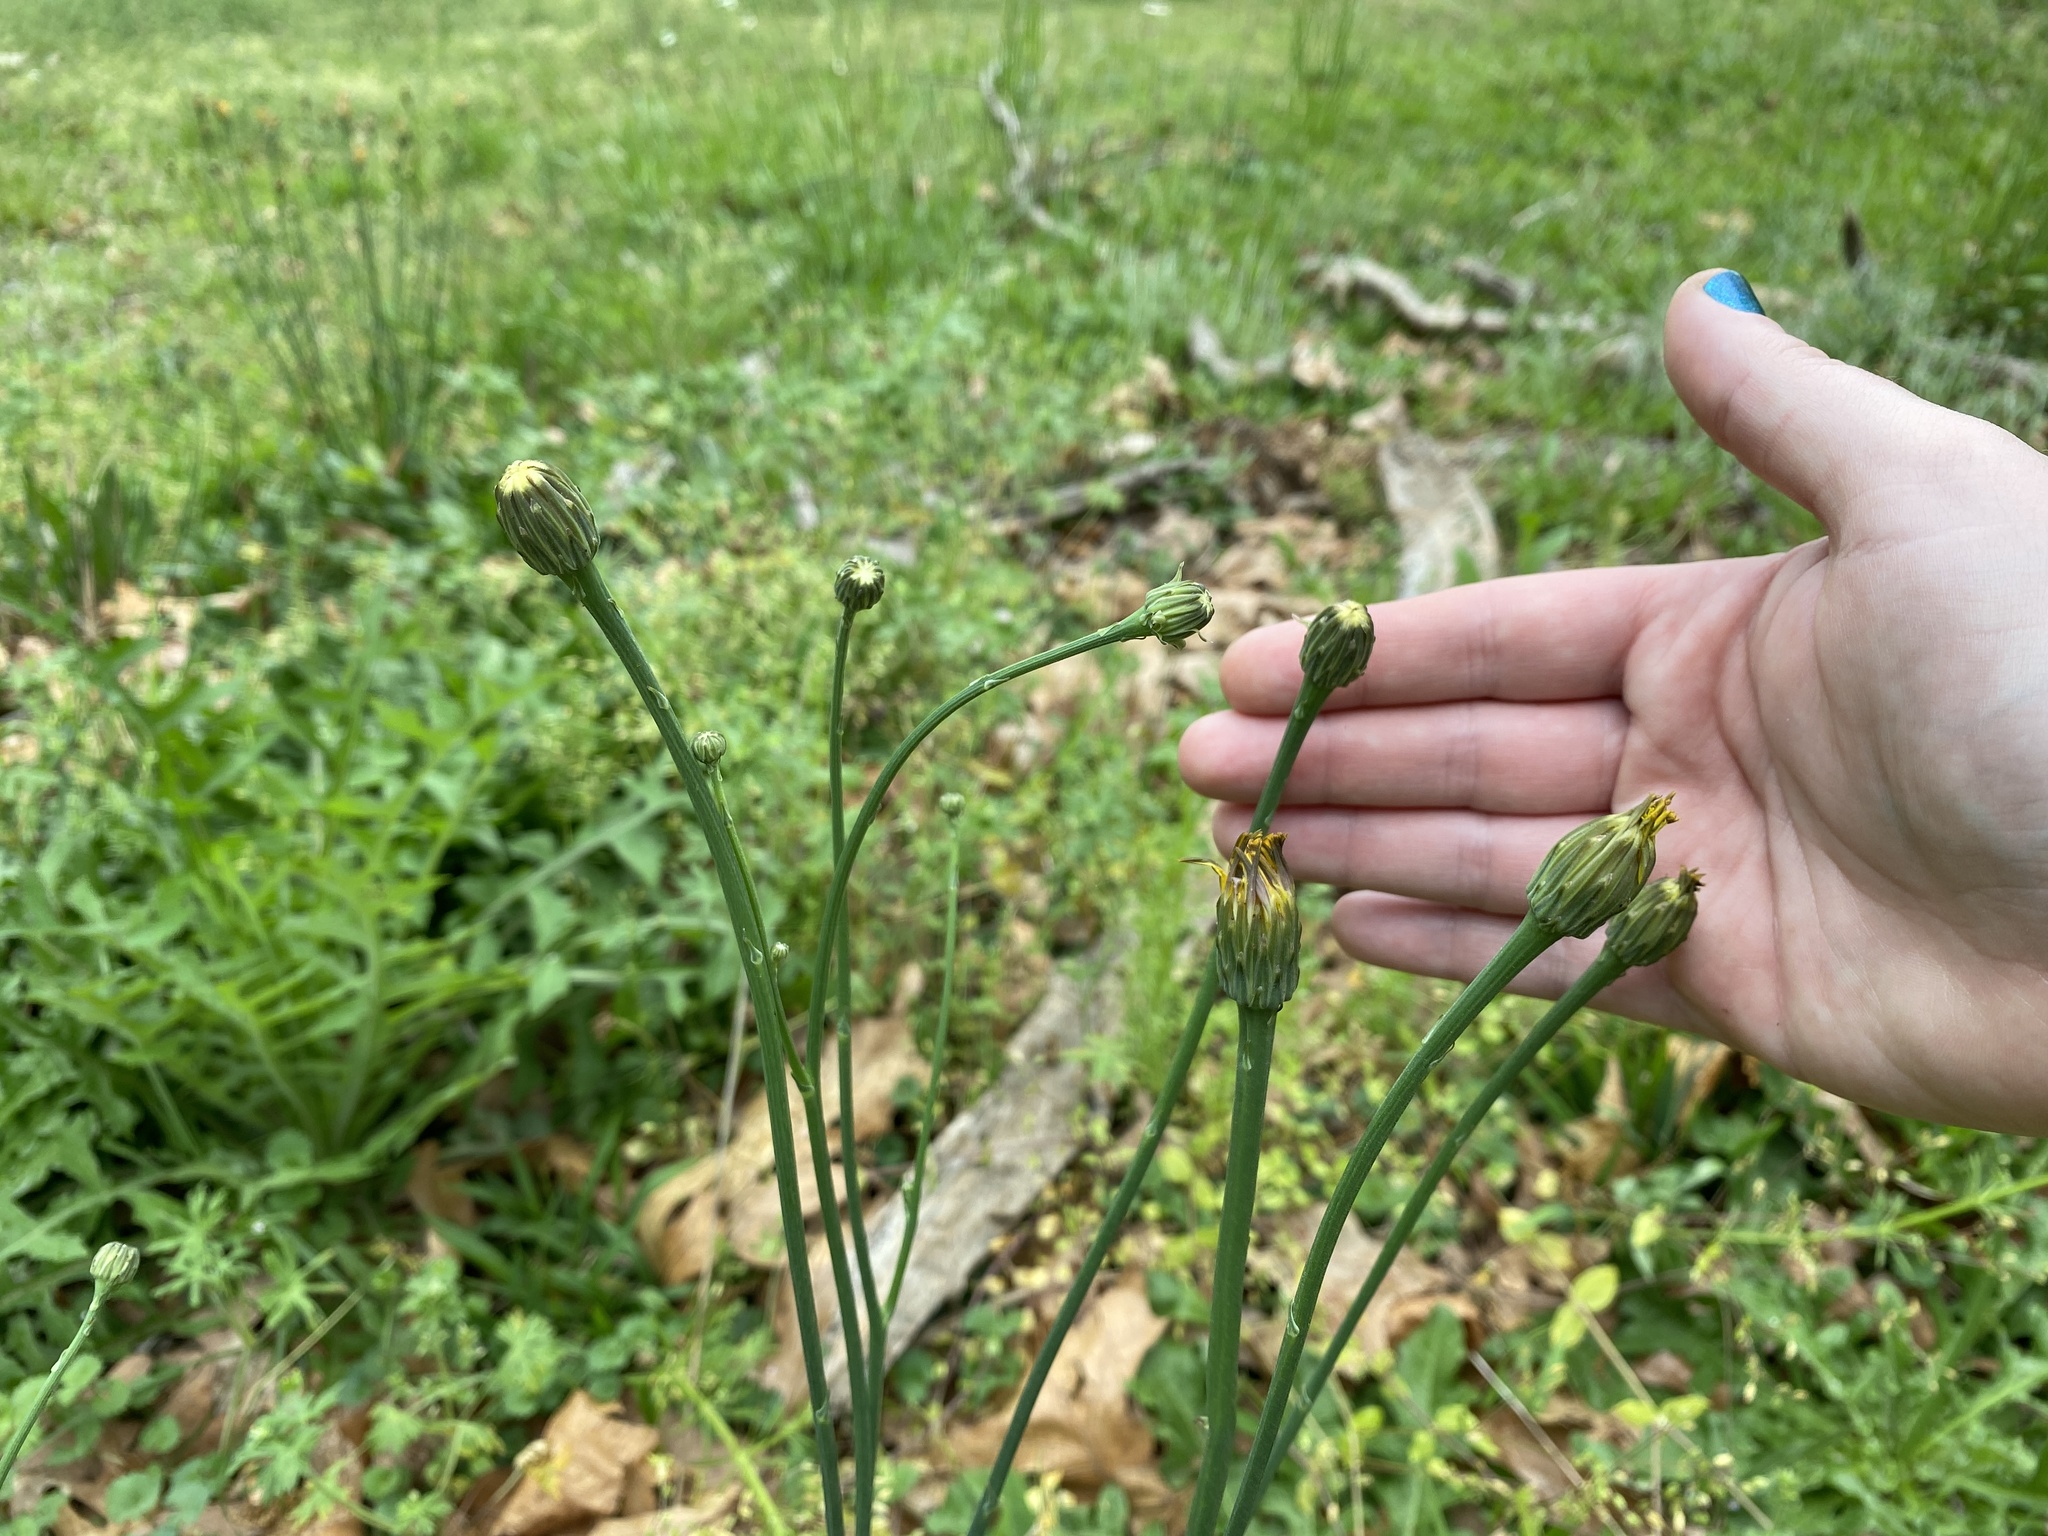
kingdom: Plantae
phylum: Tracheophyta
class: Magnoliopsida
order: Asterales
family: Asteraceae
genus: Hypochaeris
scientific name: Hypochaeris radicata
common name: Flatweed
